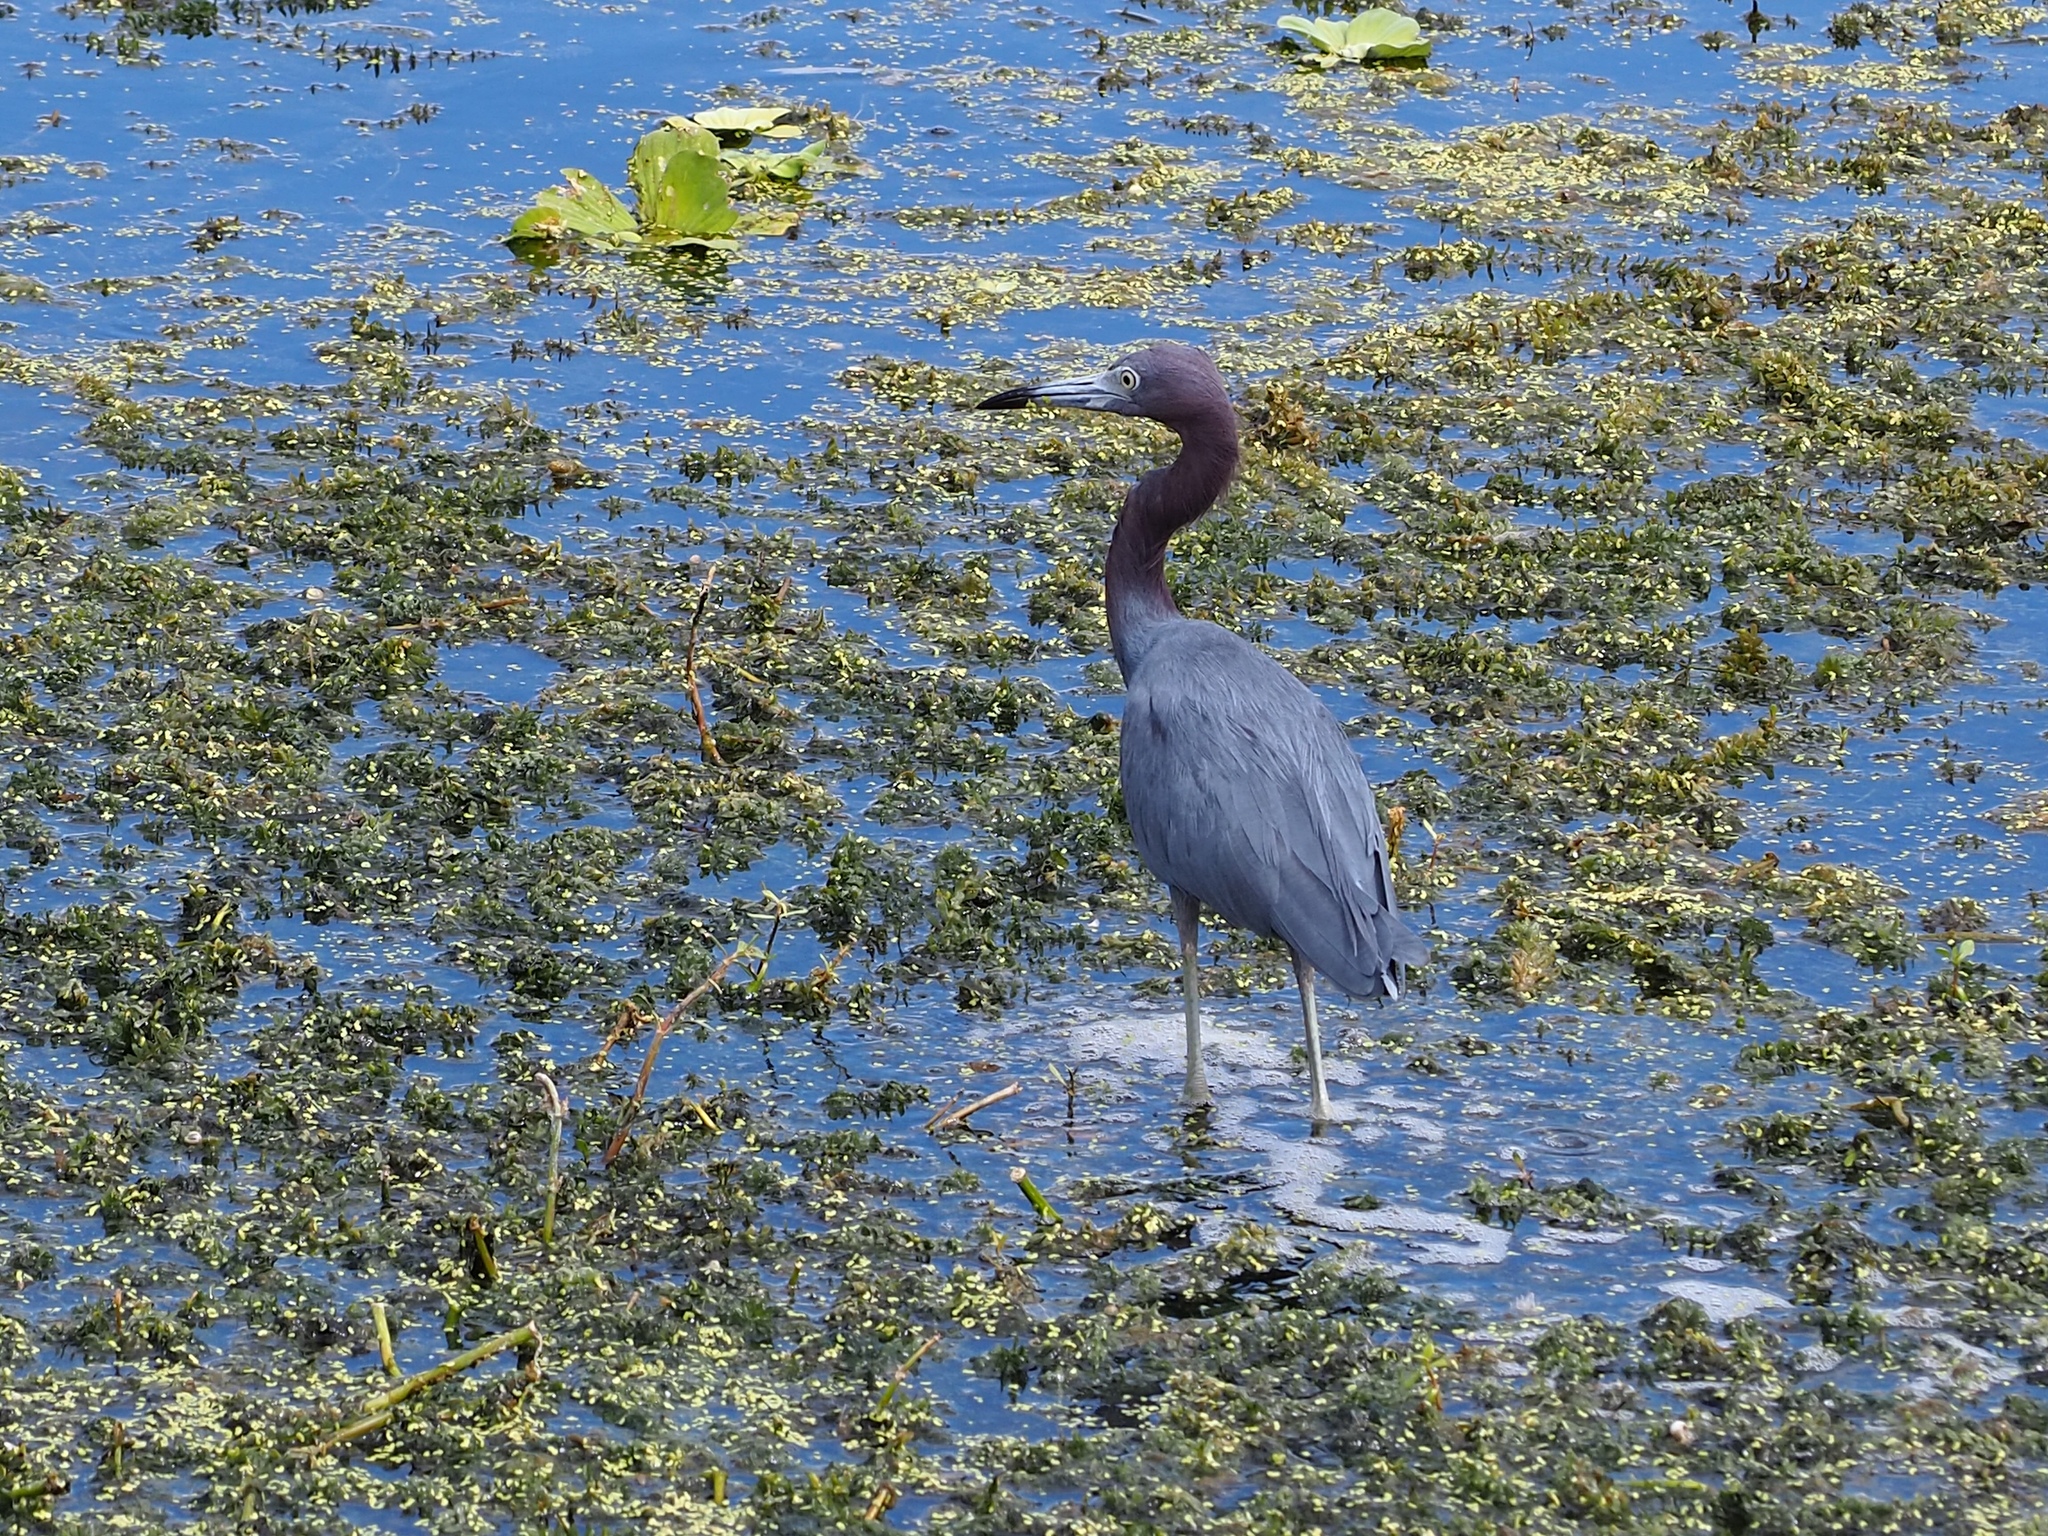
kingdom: Animalia
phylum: Chordata
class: Aves
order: Pelecaniformes
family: Ardeidae
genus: Egretta
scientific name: Egretta caerulea
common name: Little blue heron
